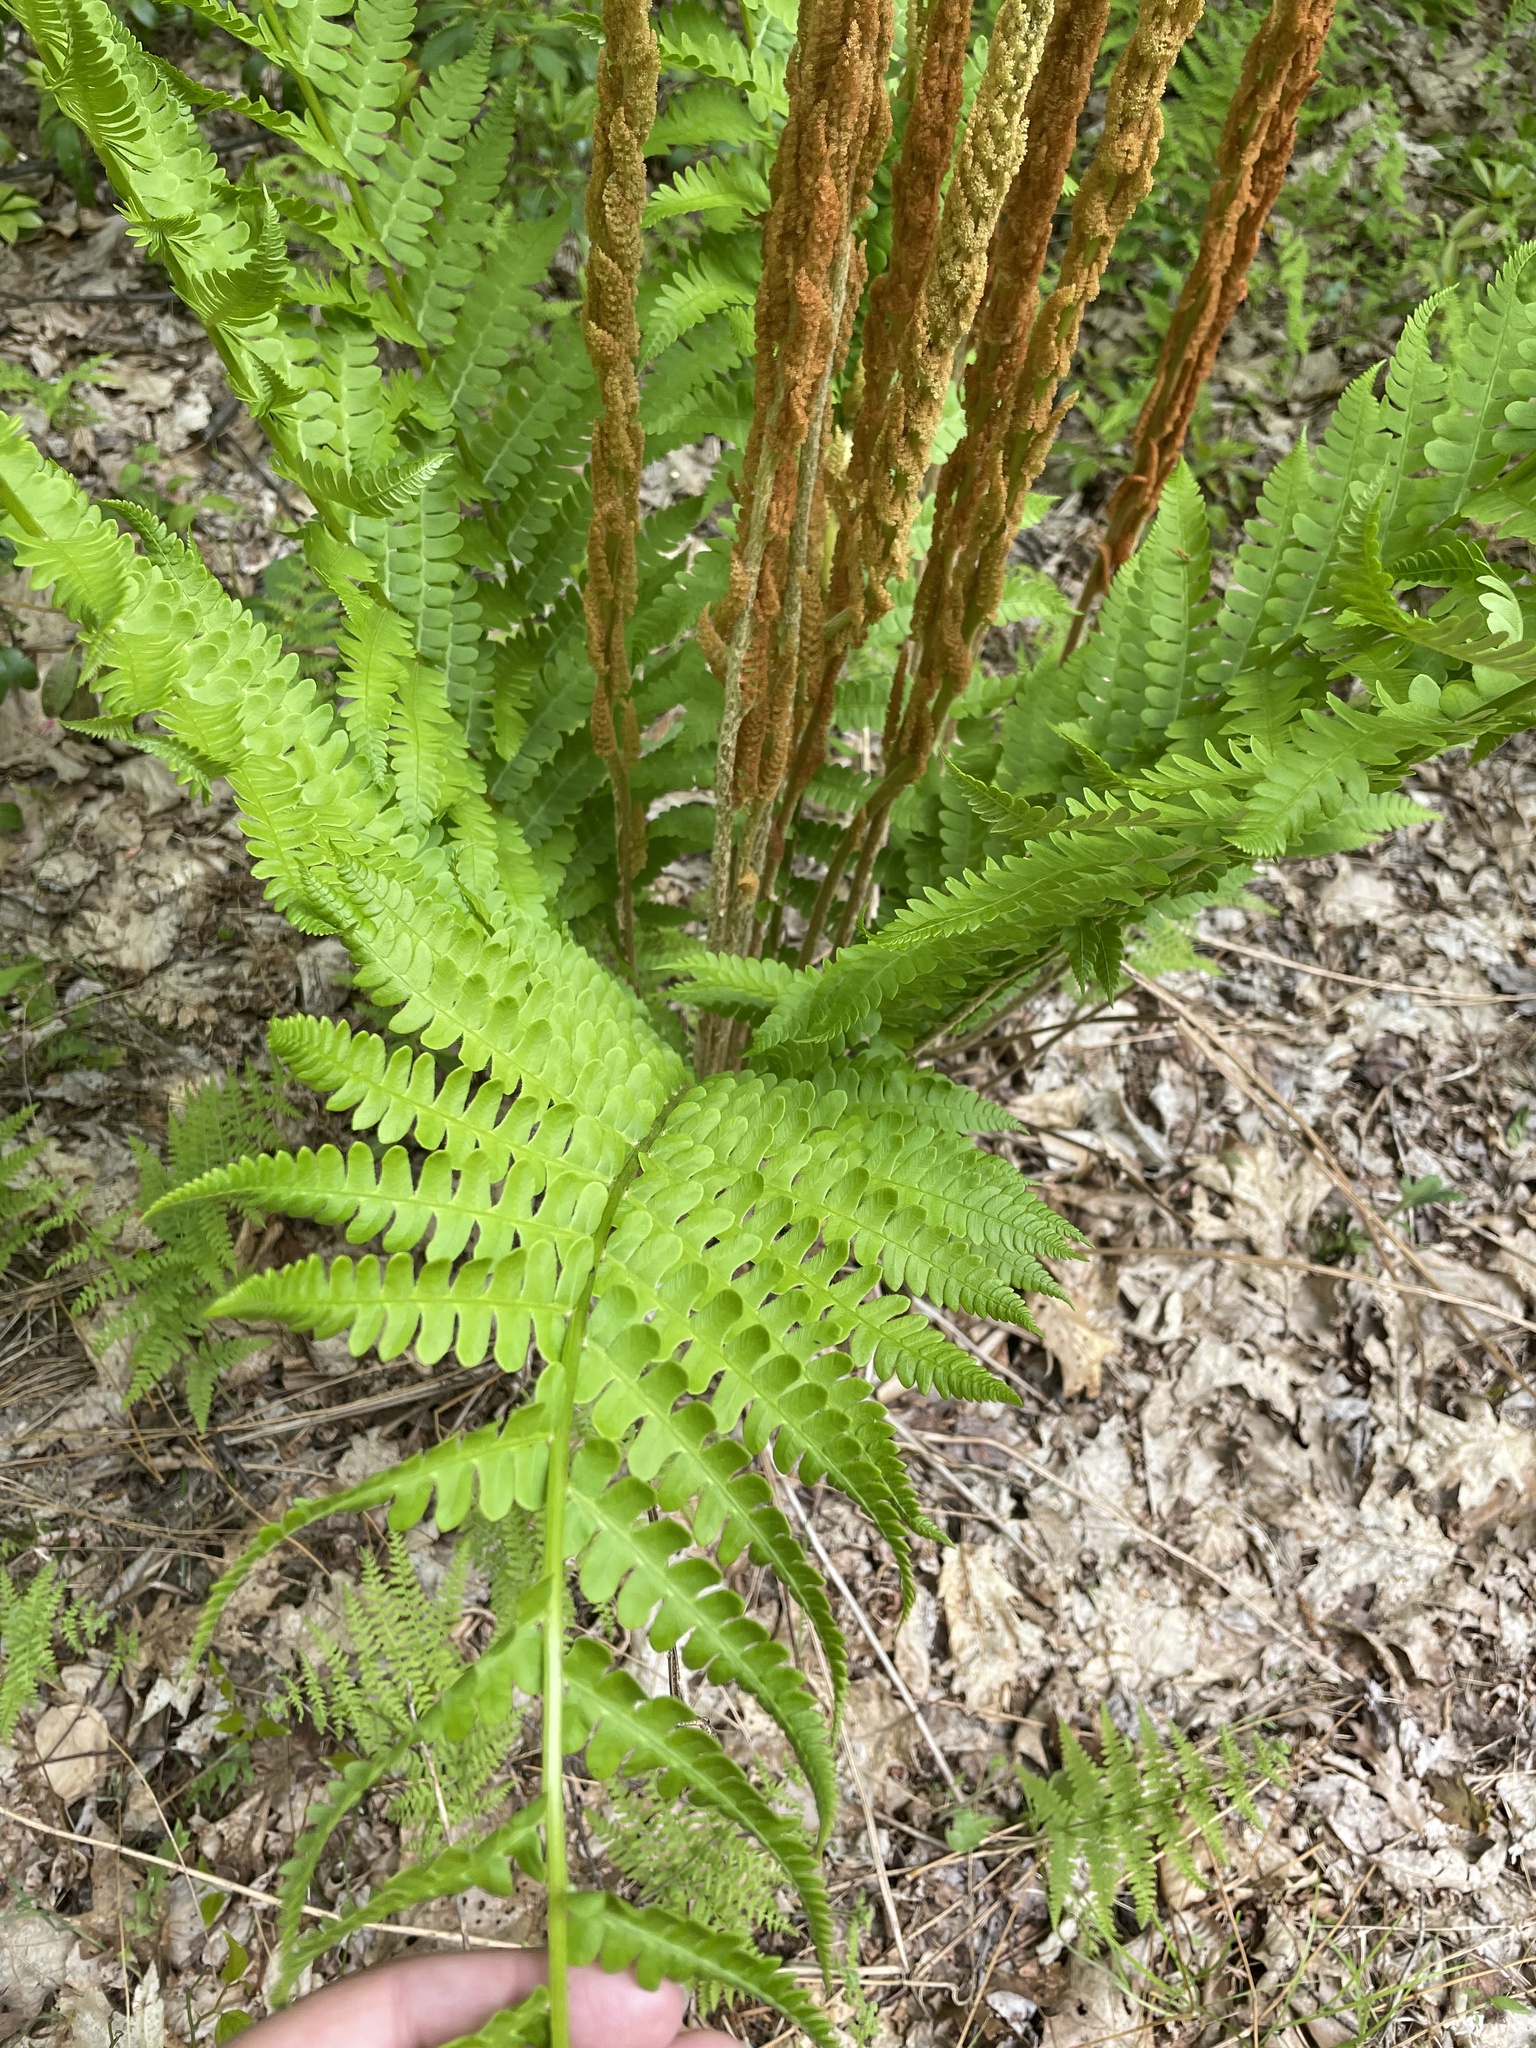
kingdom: Plantae
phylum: Tracheophyta
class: Polypodiopsida
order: Osmundales
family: Osmundaceae
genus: Osmundastrum
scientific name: Osmundastrum cinnamomeum
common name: Cinnamon fern
